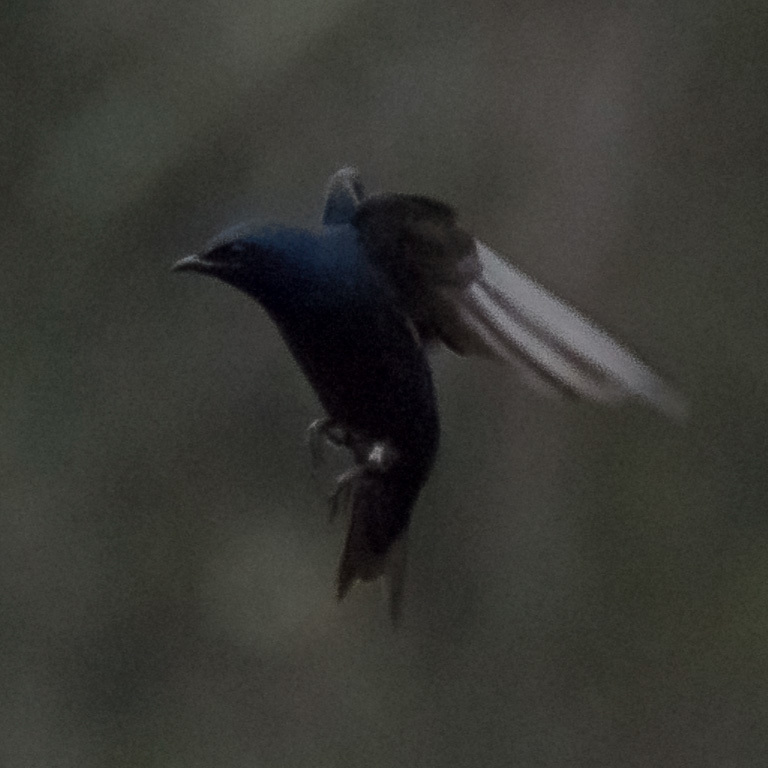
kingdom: Animalia
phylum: Chordata
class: Aves
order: Passeriformes
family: Hirundinidae
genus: Progne
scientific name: Progne subis
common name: Purple martin
